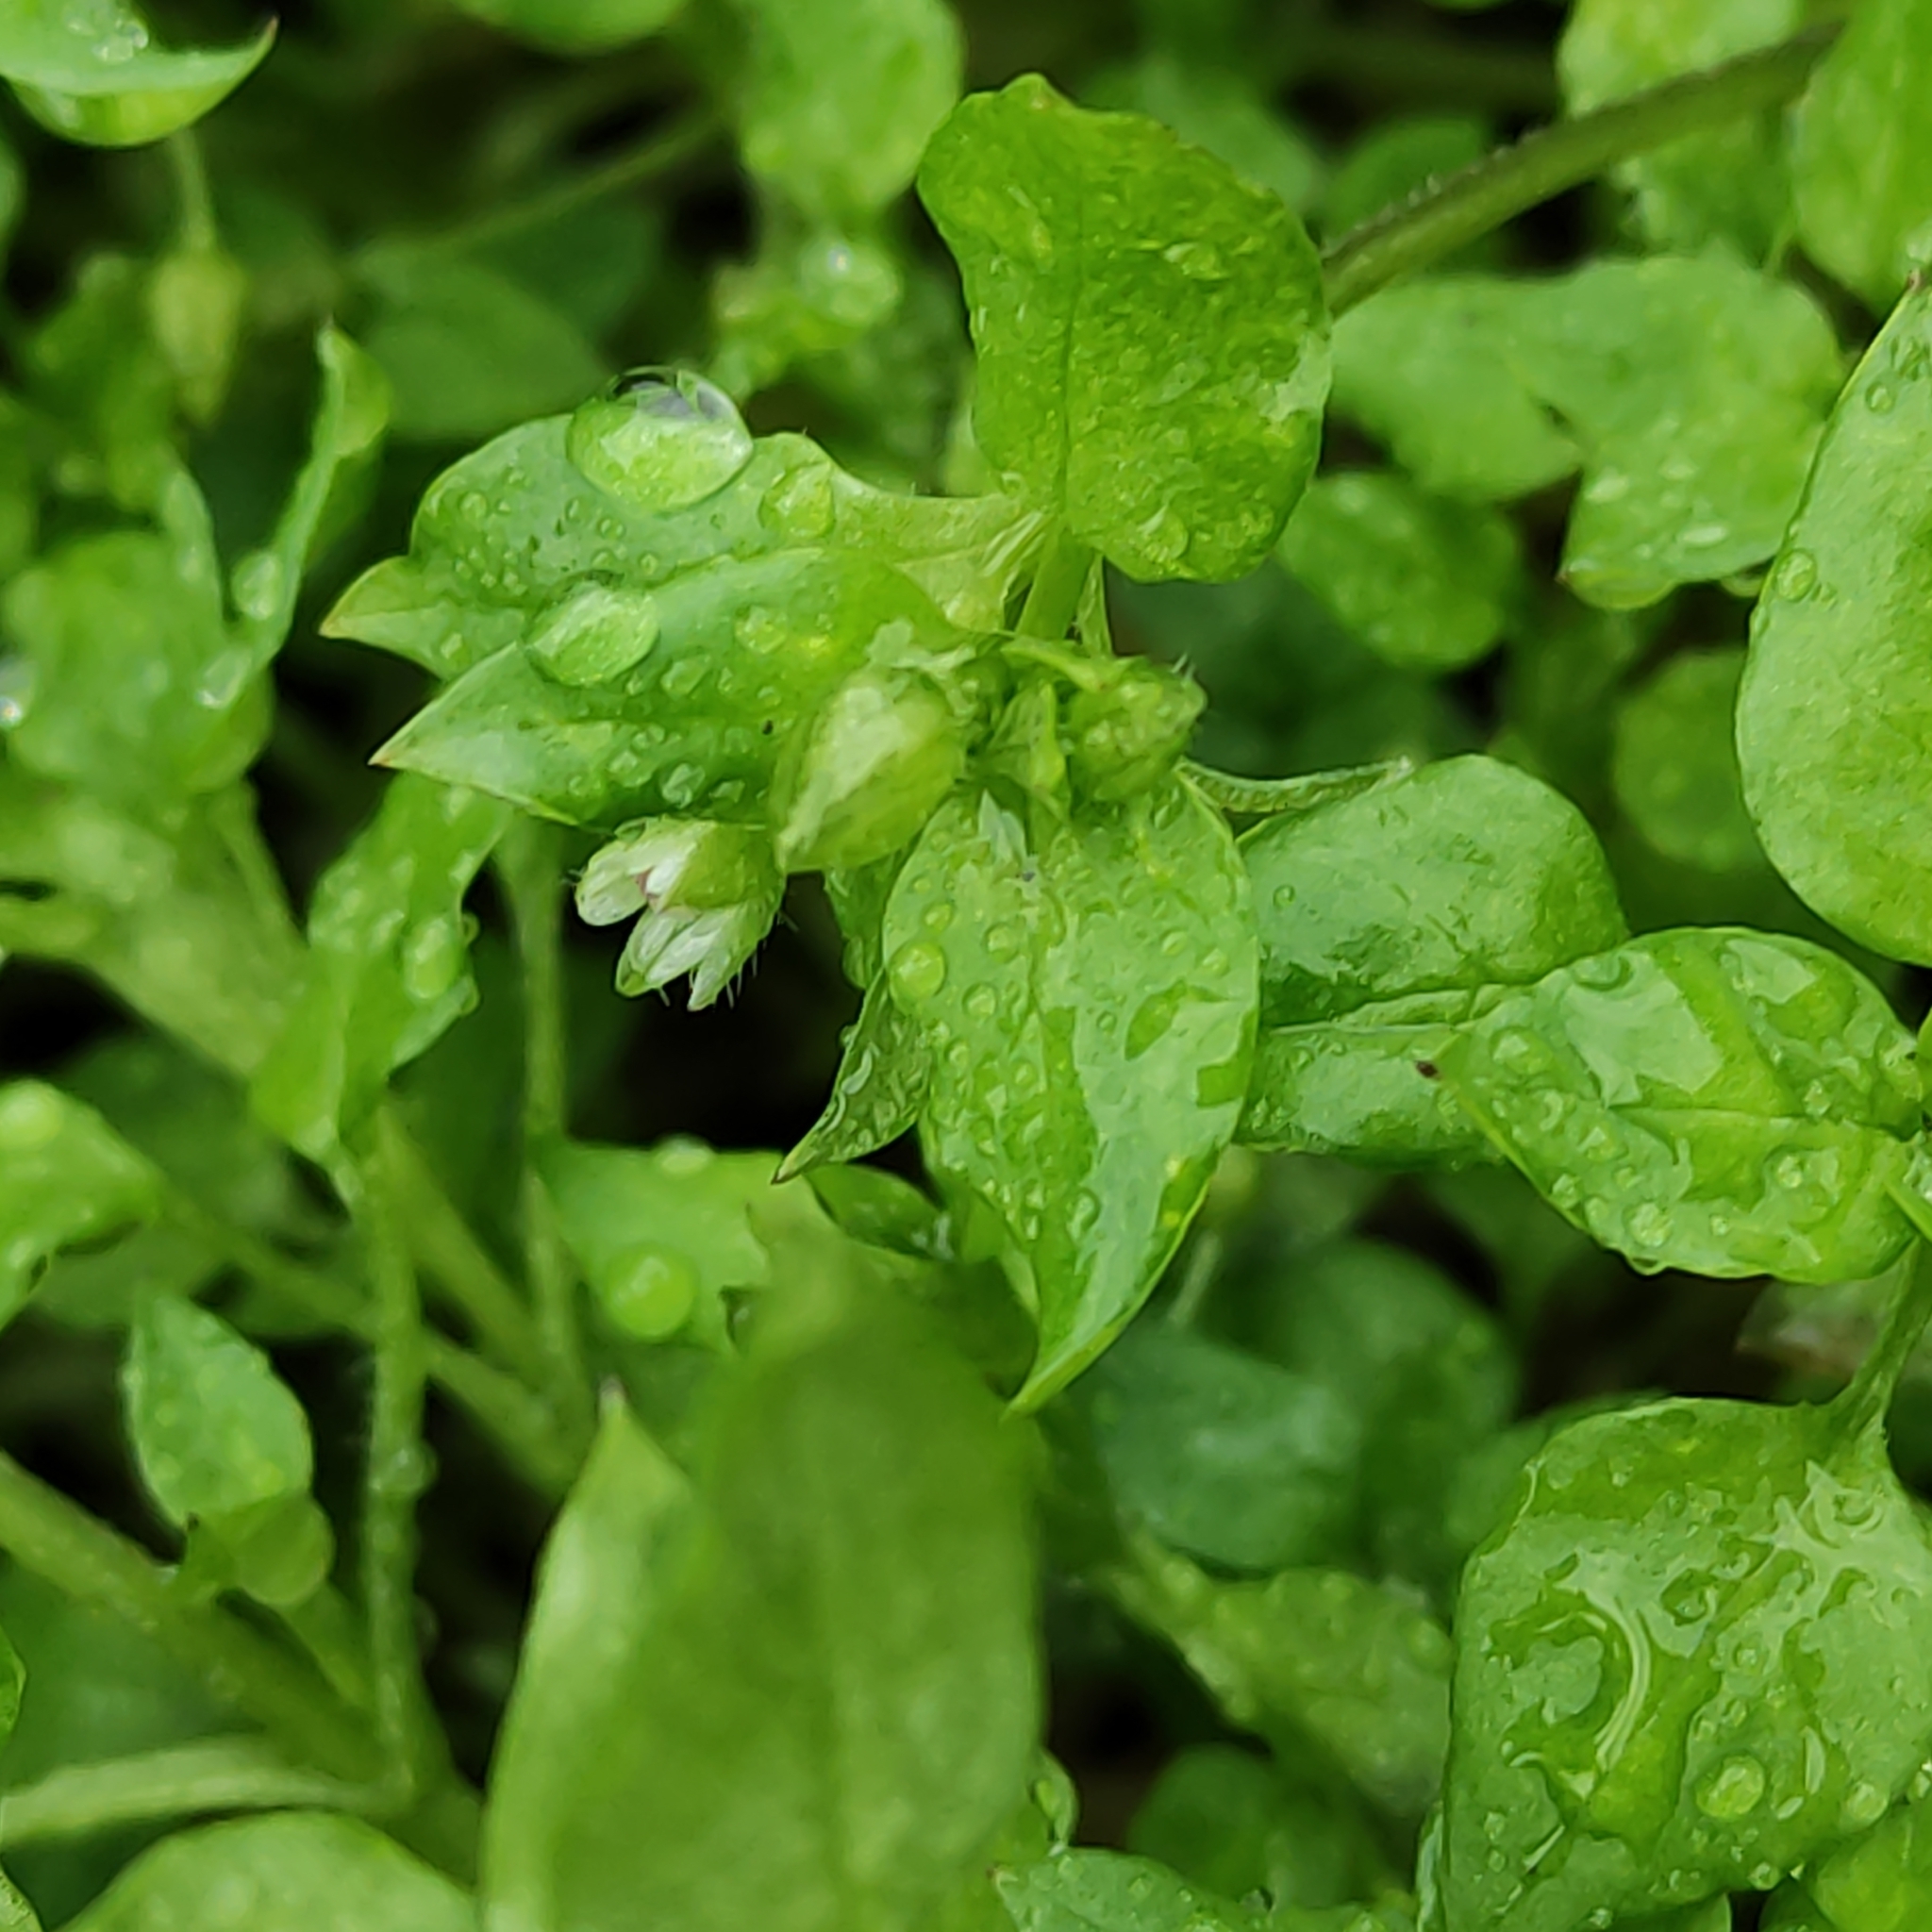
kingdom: Plantae
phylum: Tracheophyta
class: Magnoliopsida
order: Caryophyllales
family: Caryophyllaceae
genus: Stellaria
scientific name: Stellaria media
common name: Common chickweed
